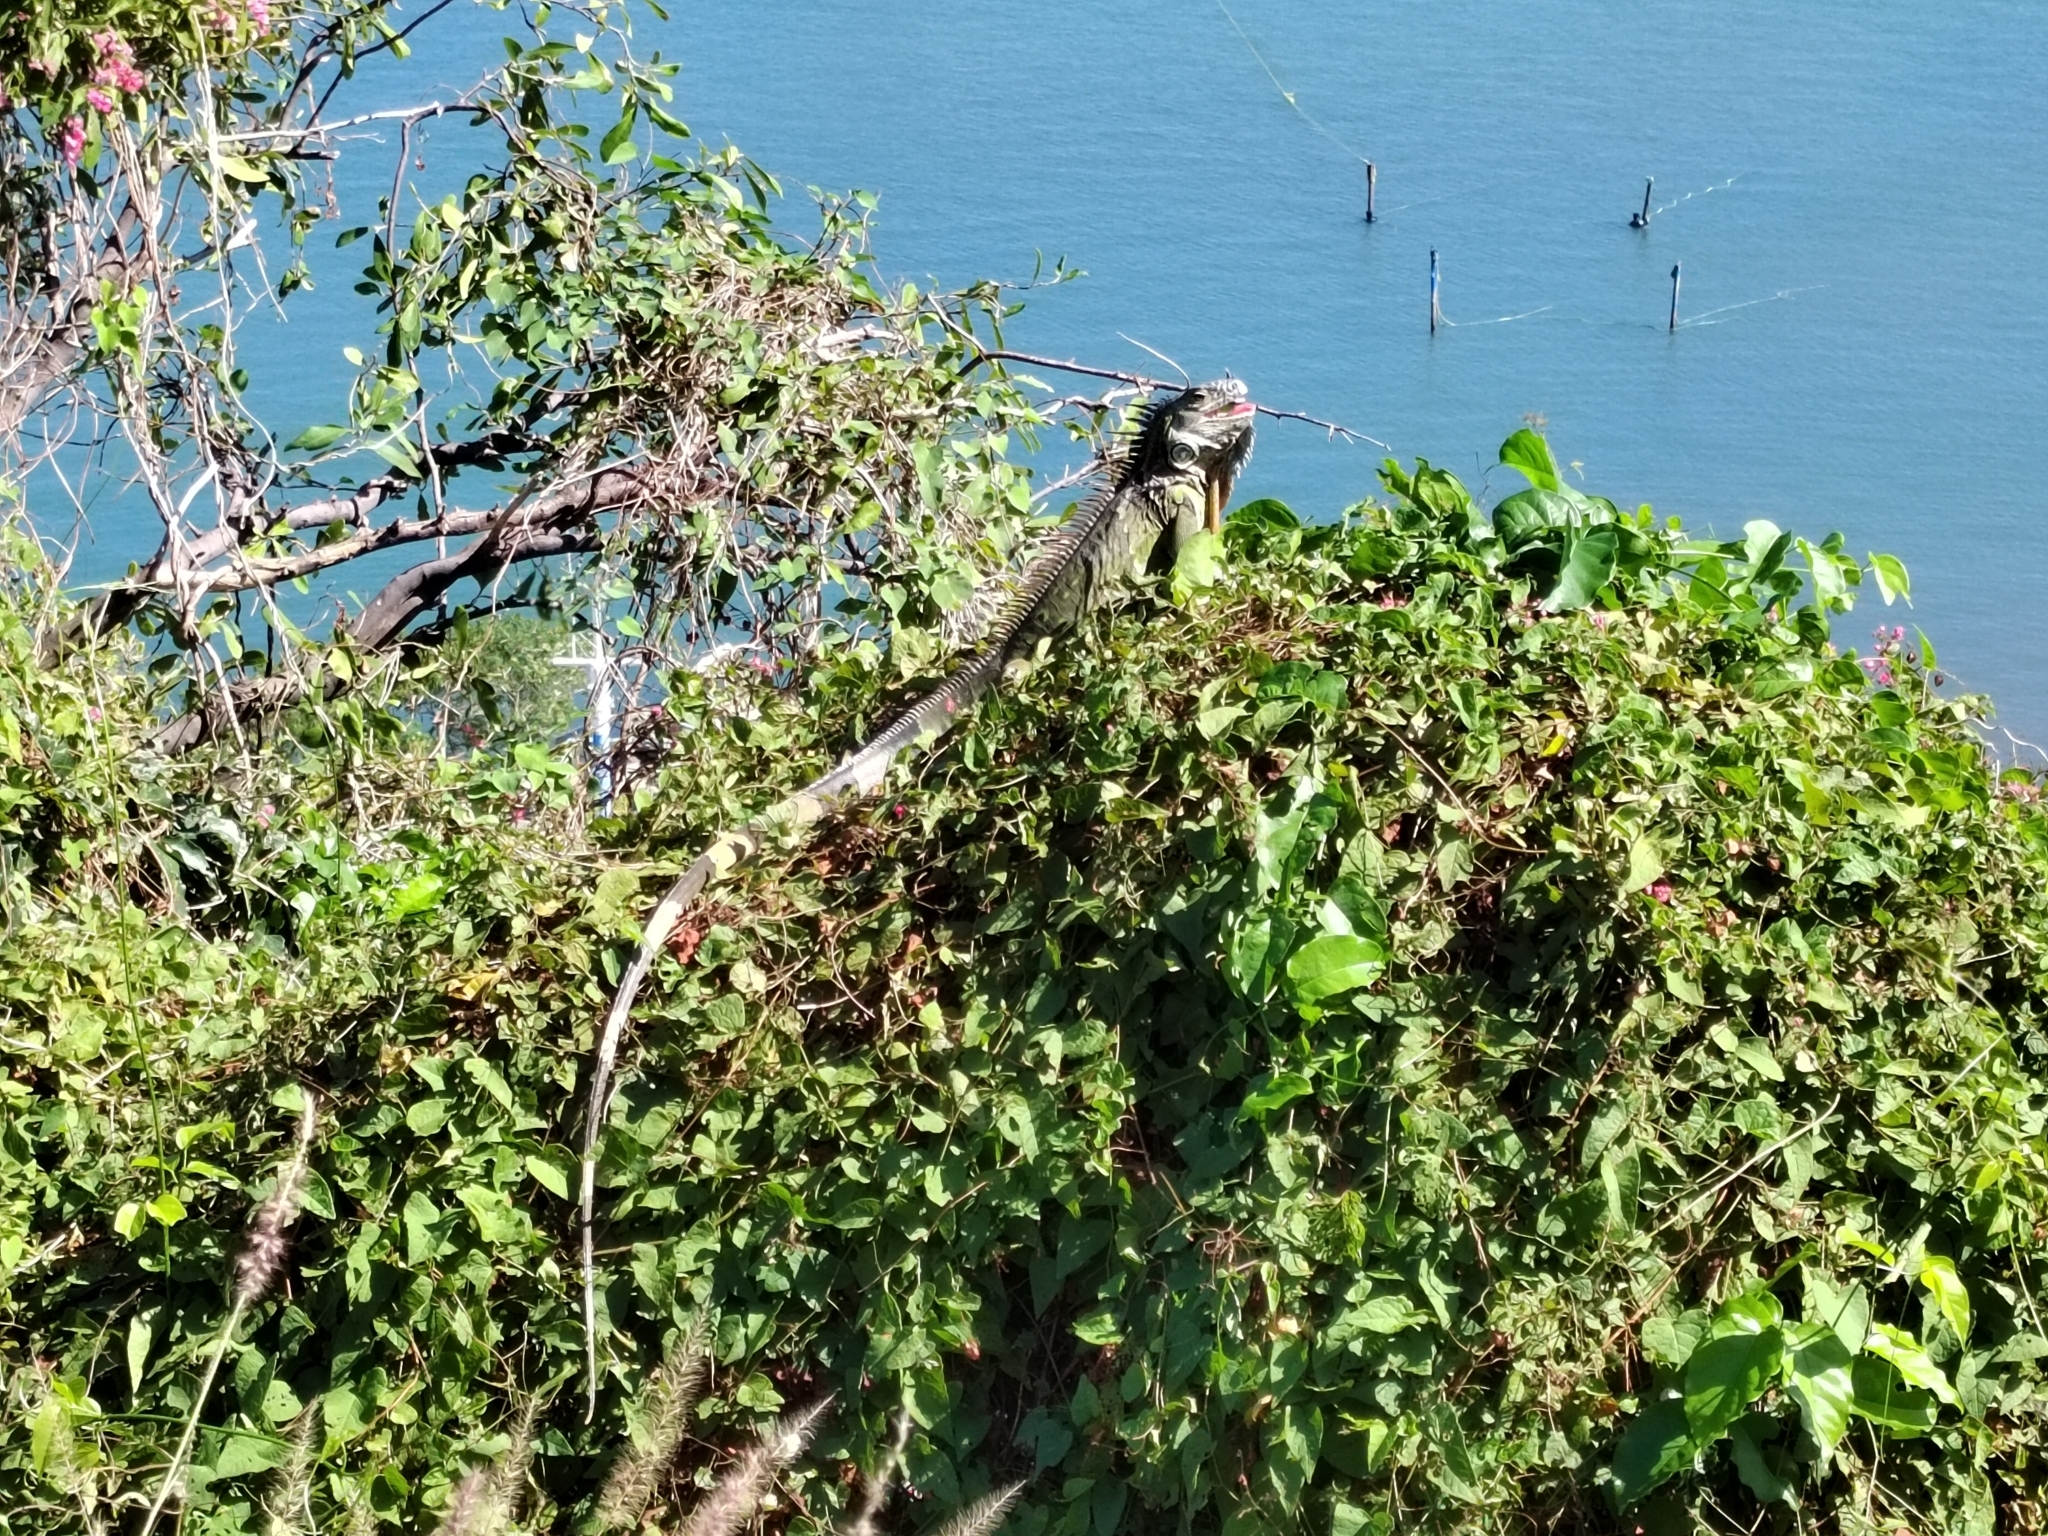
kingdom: Animalia
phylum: Chordata
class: Squamata
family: Iguanidae
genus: Iguana
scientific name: Iguana iguana
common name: Green iguana
